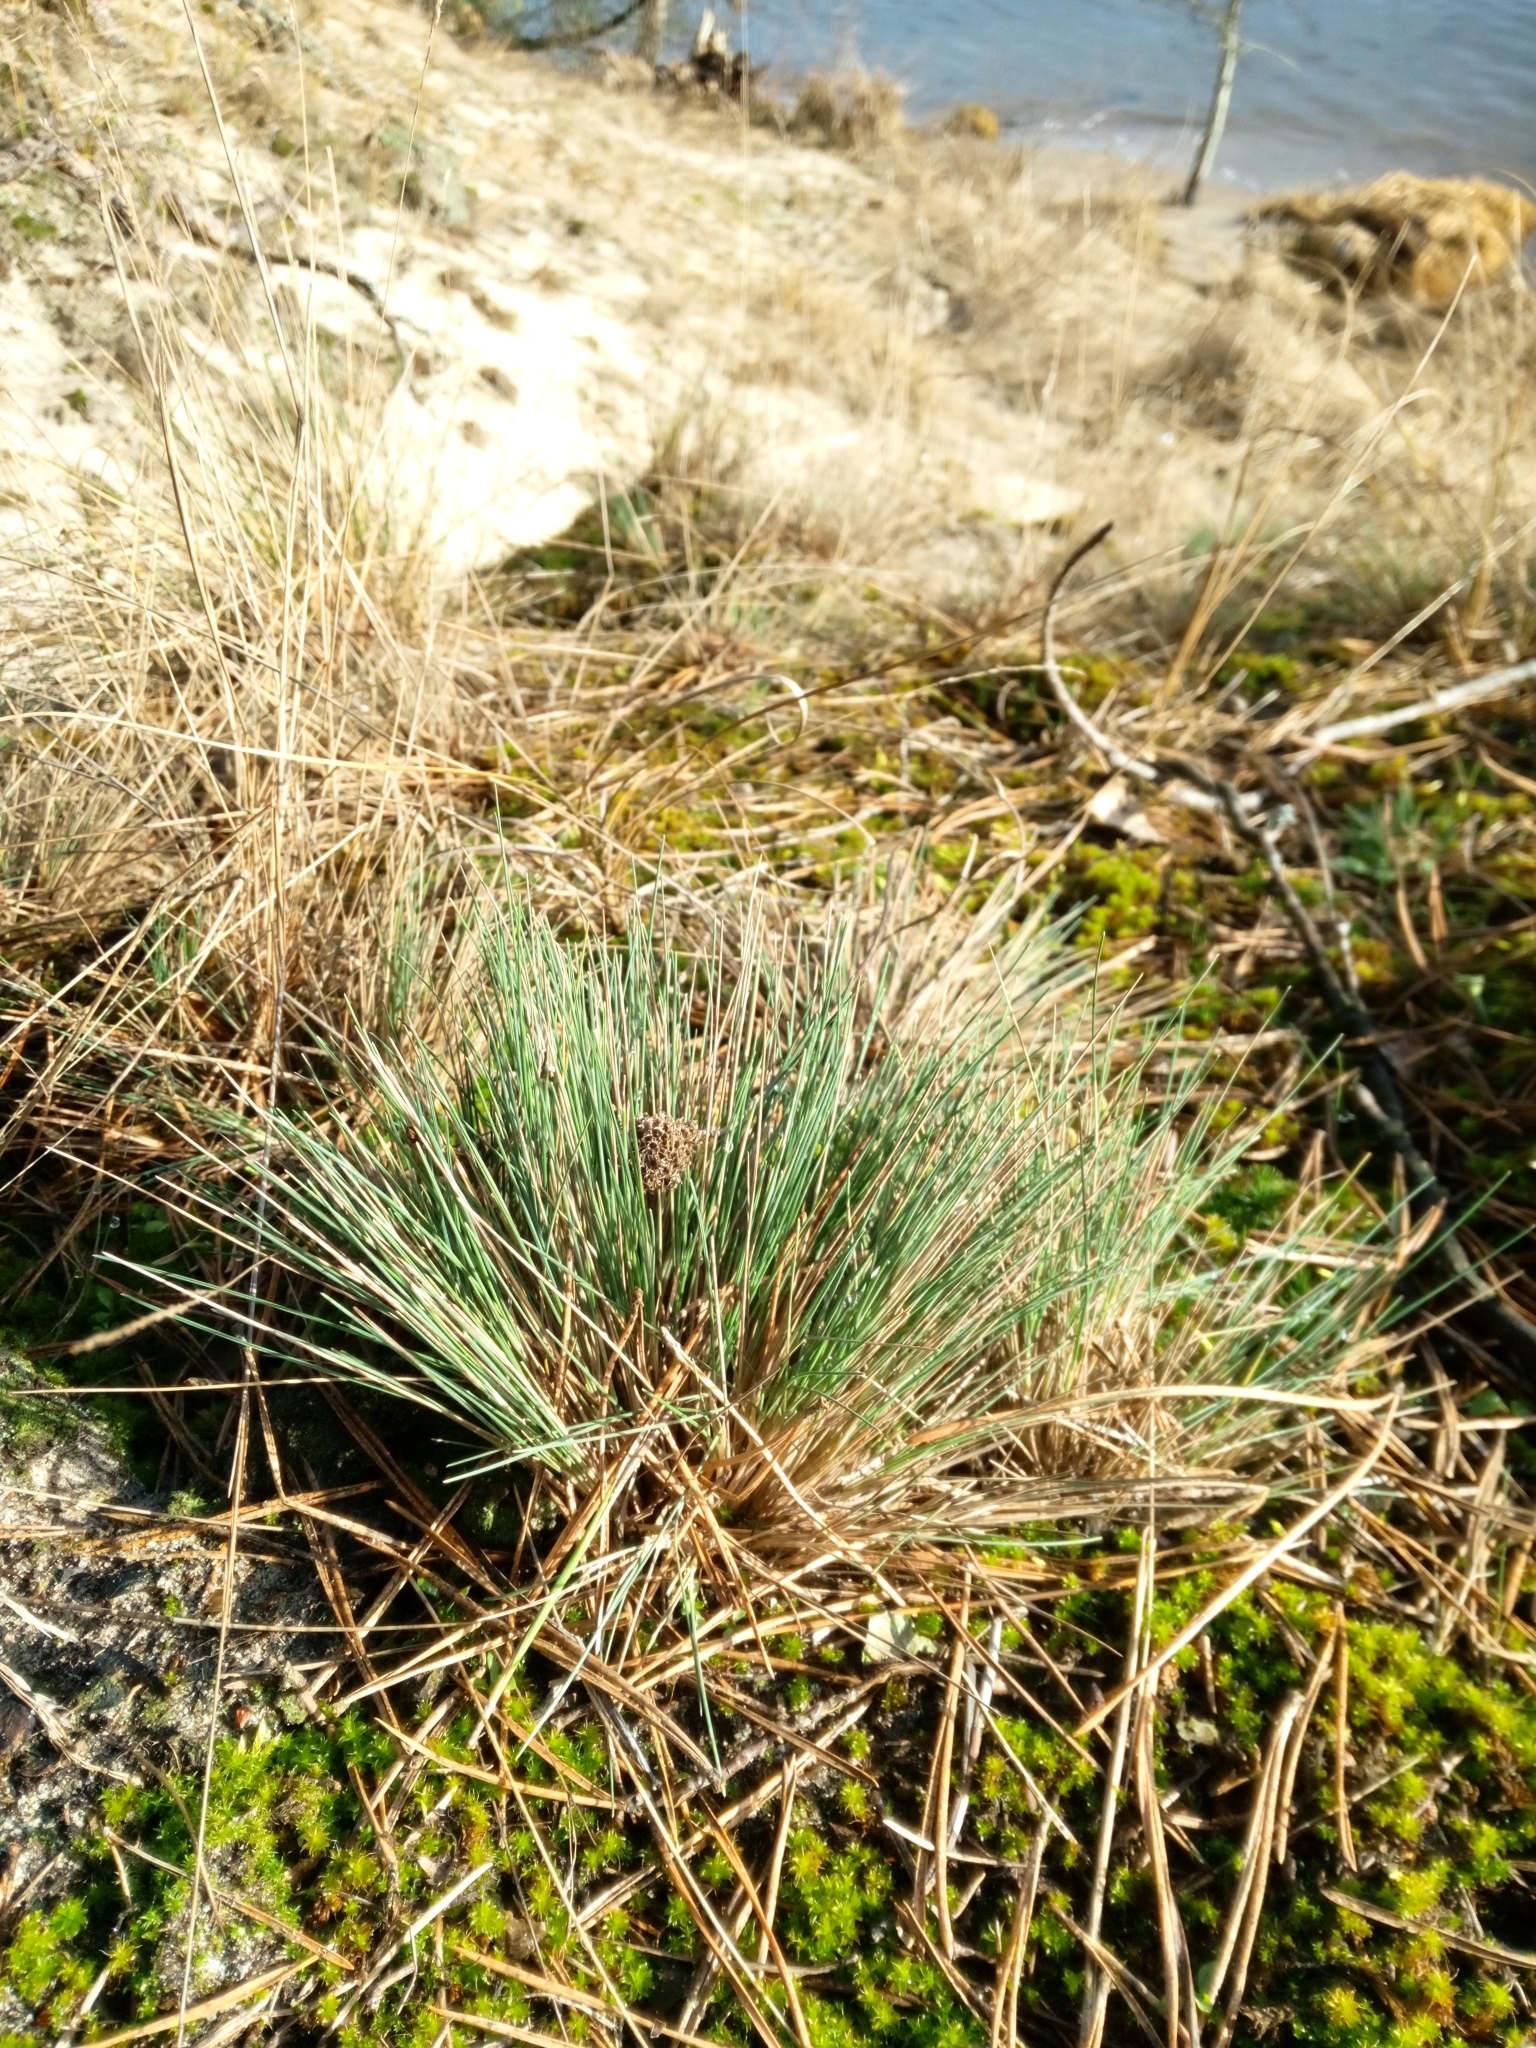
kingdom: Plantae
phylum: Tracheophyta
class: Liliopsida
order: Poales
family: Poaceae
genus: Corynephorus
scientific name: Corynephorus canescens
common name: Grey hair-grass
